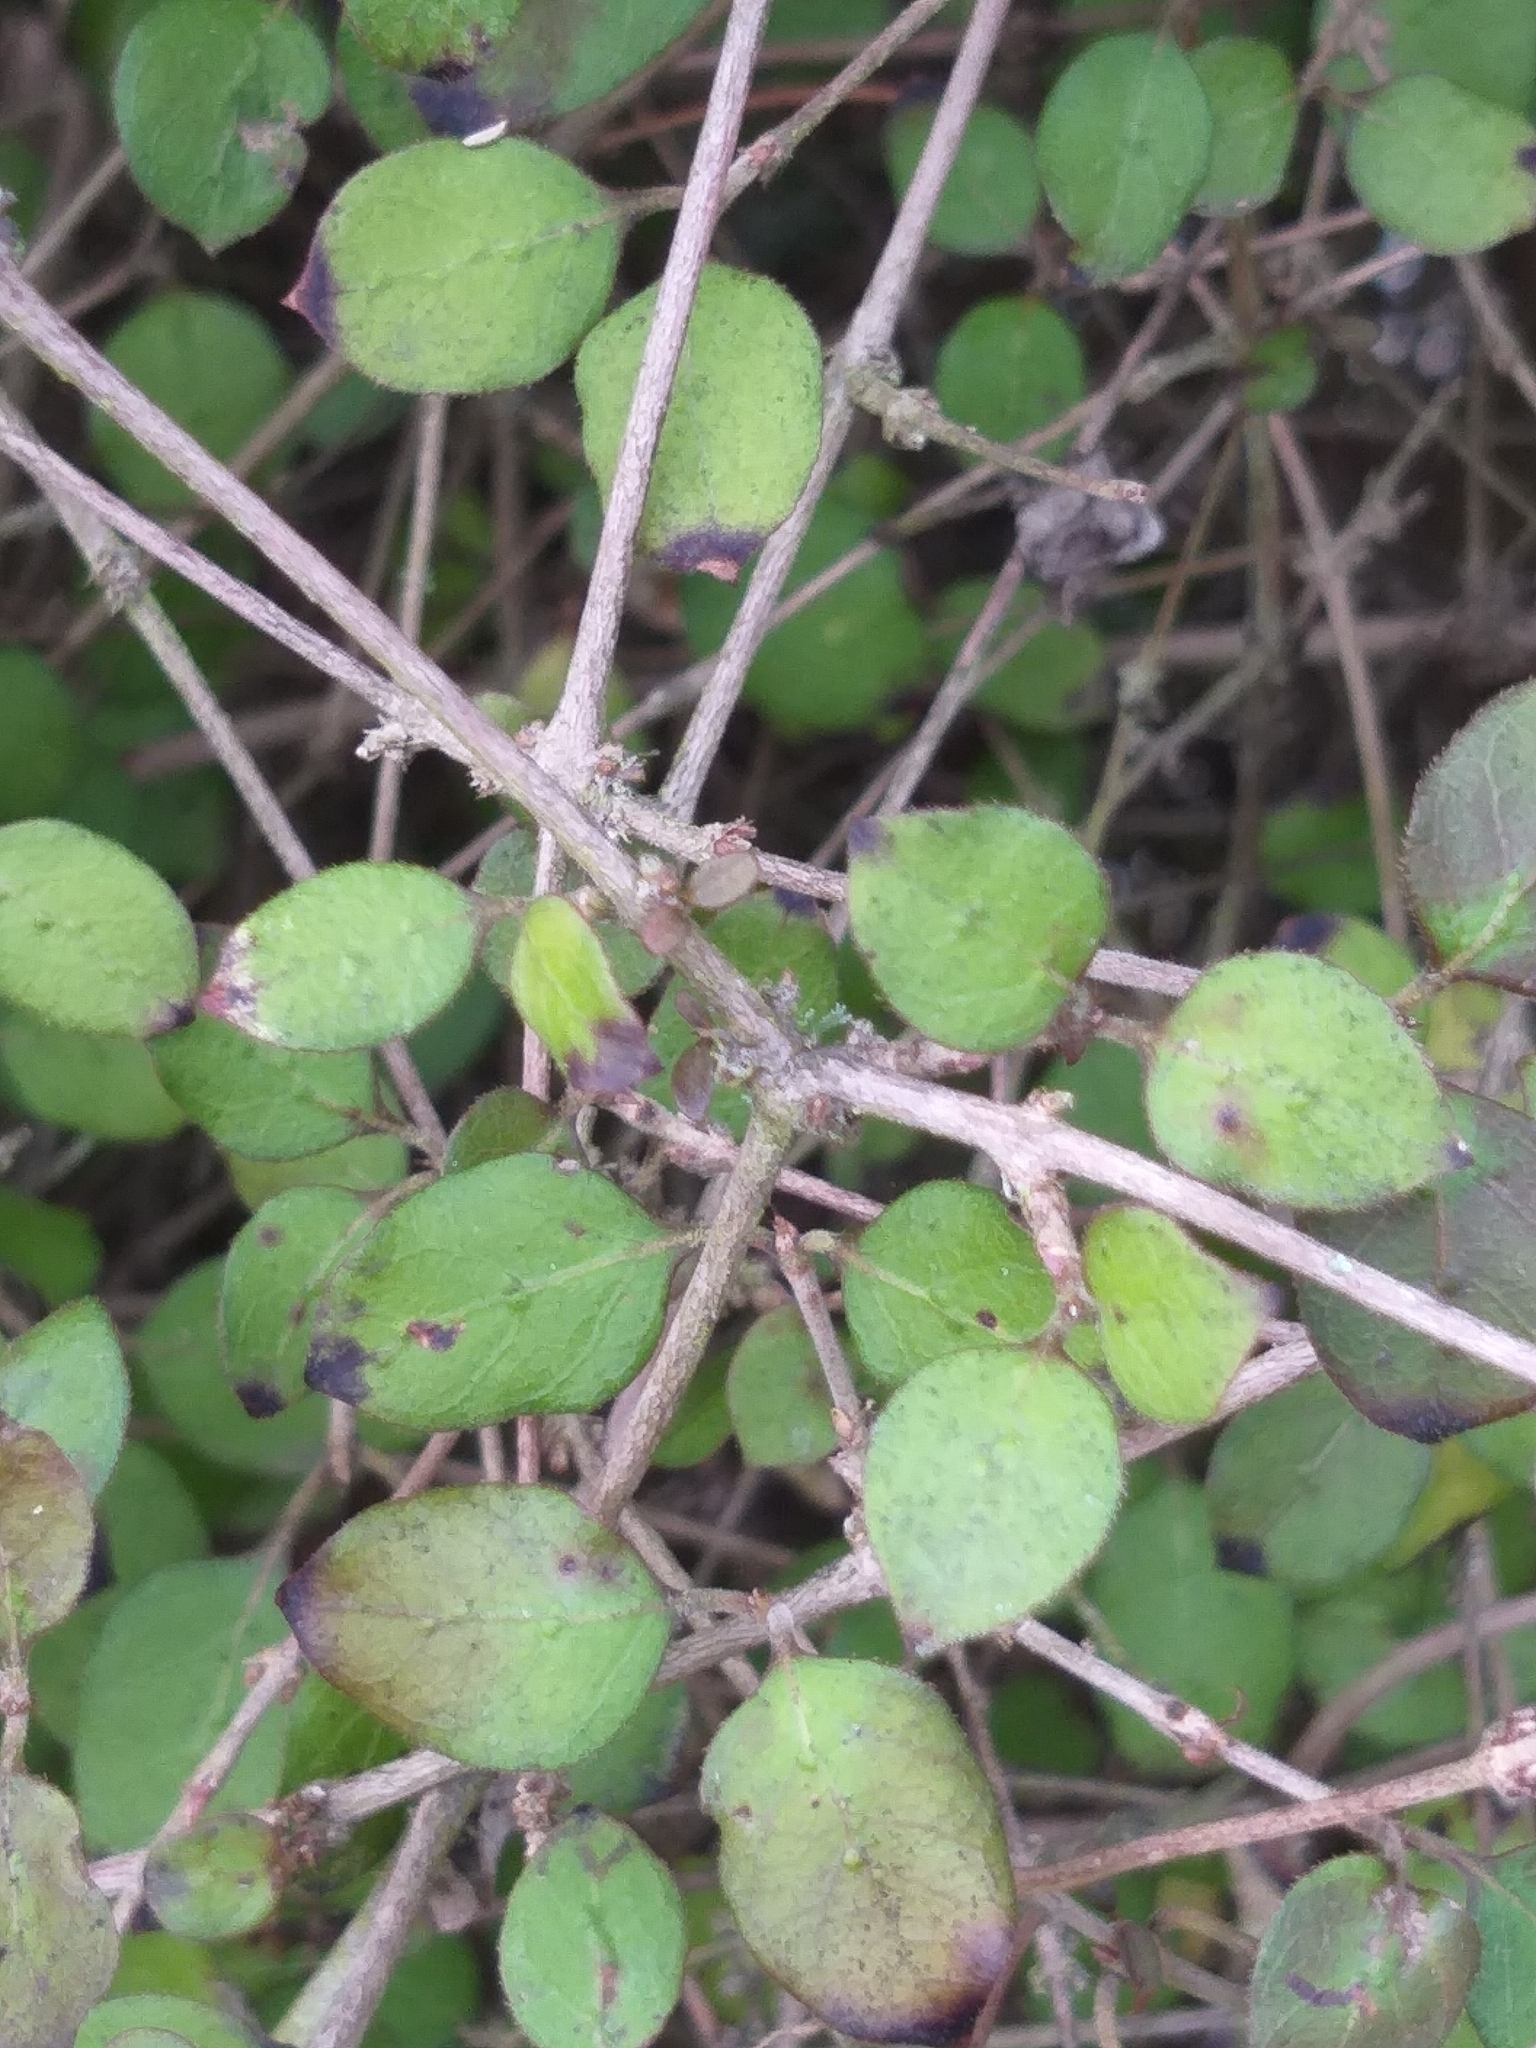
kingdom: Plantae
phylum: Tracheophyta
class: Magnoliopsida
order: Gentianales
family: Rubiaceae
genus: Coprosma
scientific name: Coprosma rotundifolia
